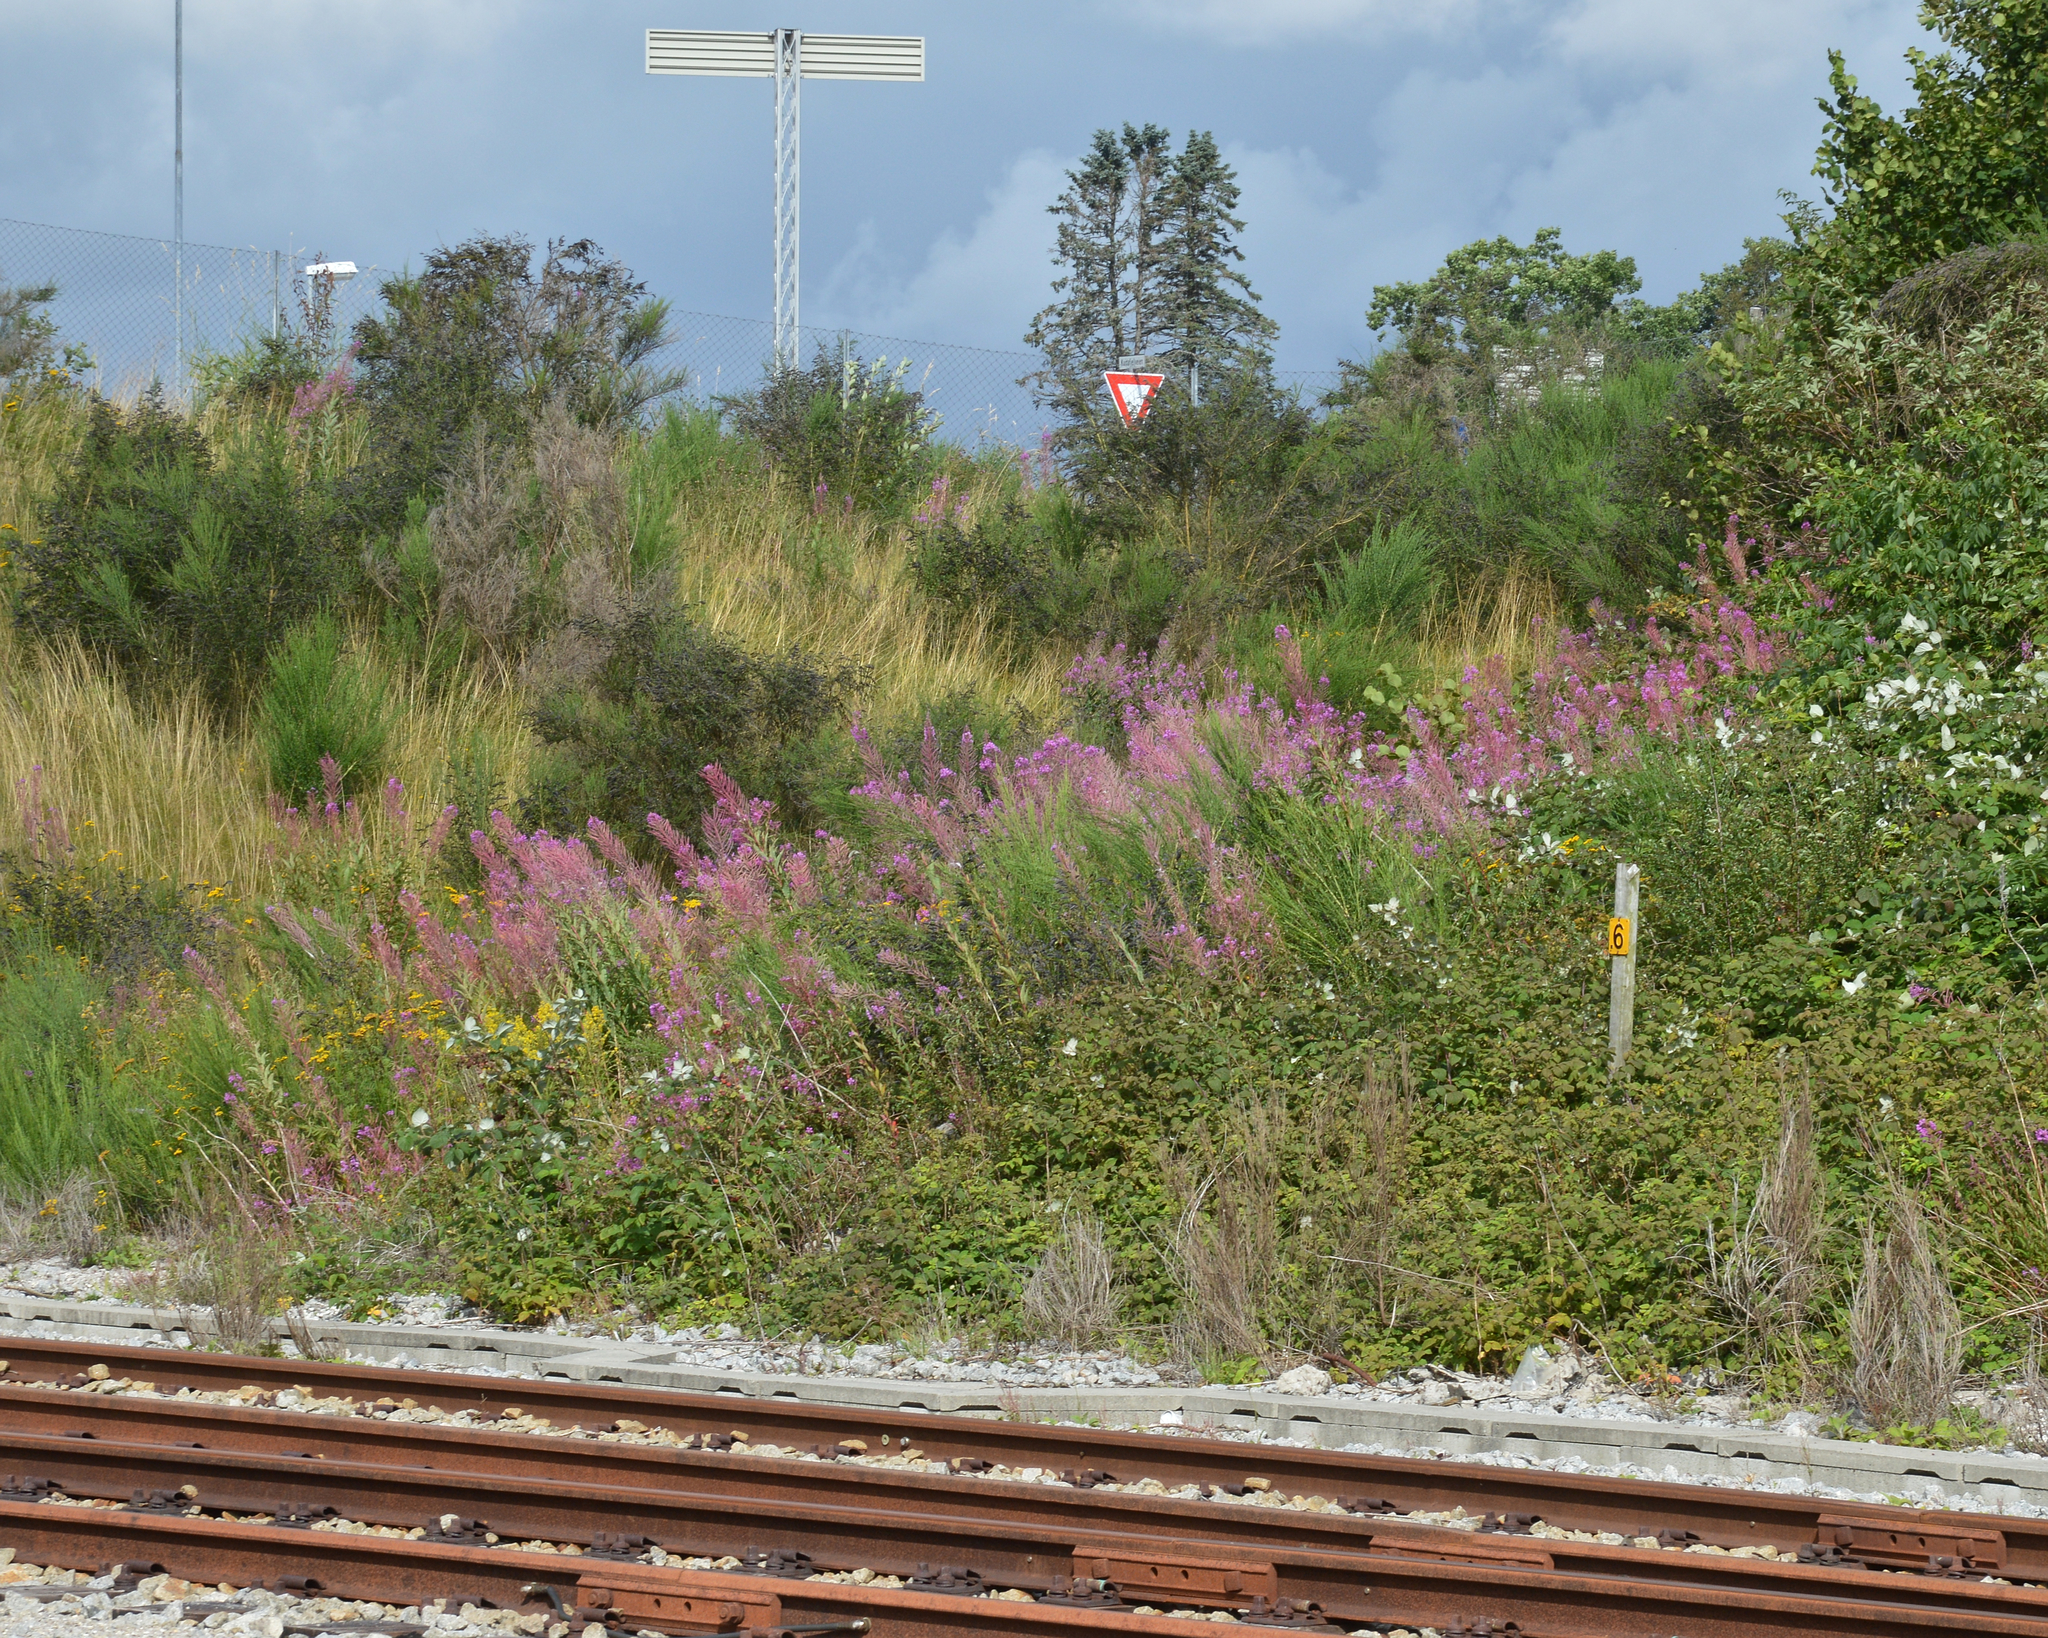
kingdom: Plantae
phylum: Tracheophyta
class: Magnoliopsida
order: Myrtales
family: Onagraceae
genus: Chamaenerion
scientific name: Chamaenerion angustifolium
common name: Fireweed
